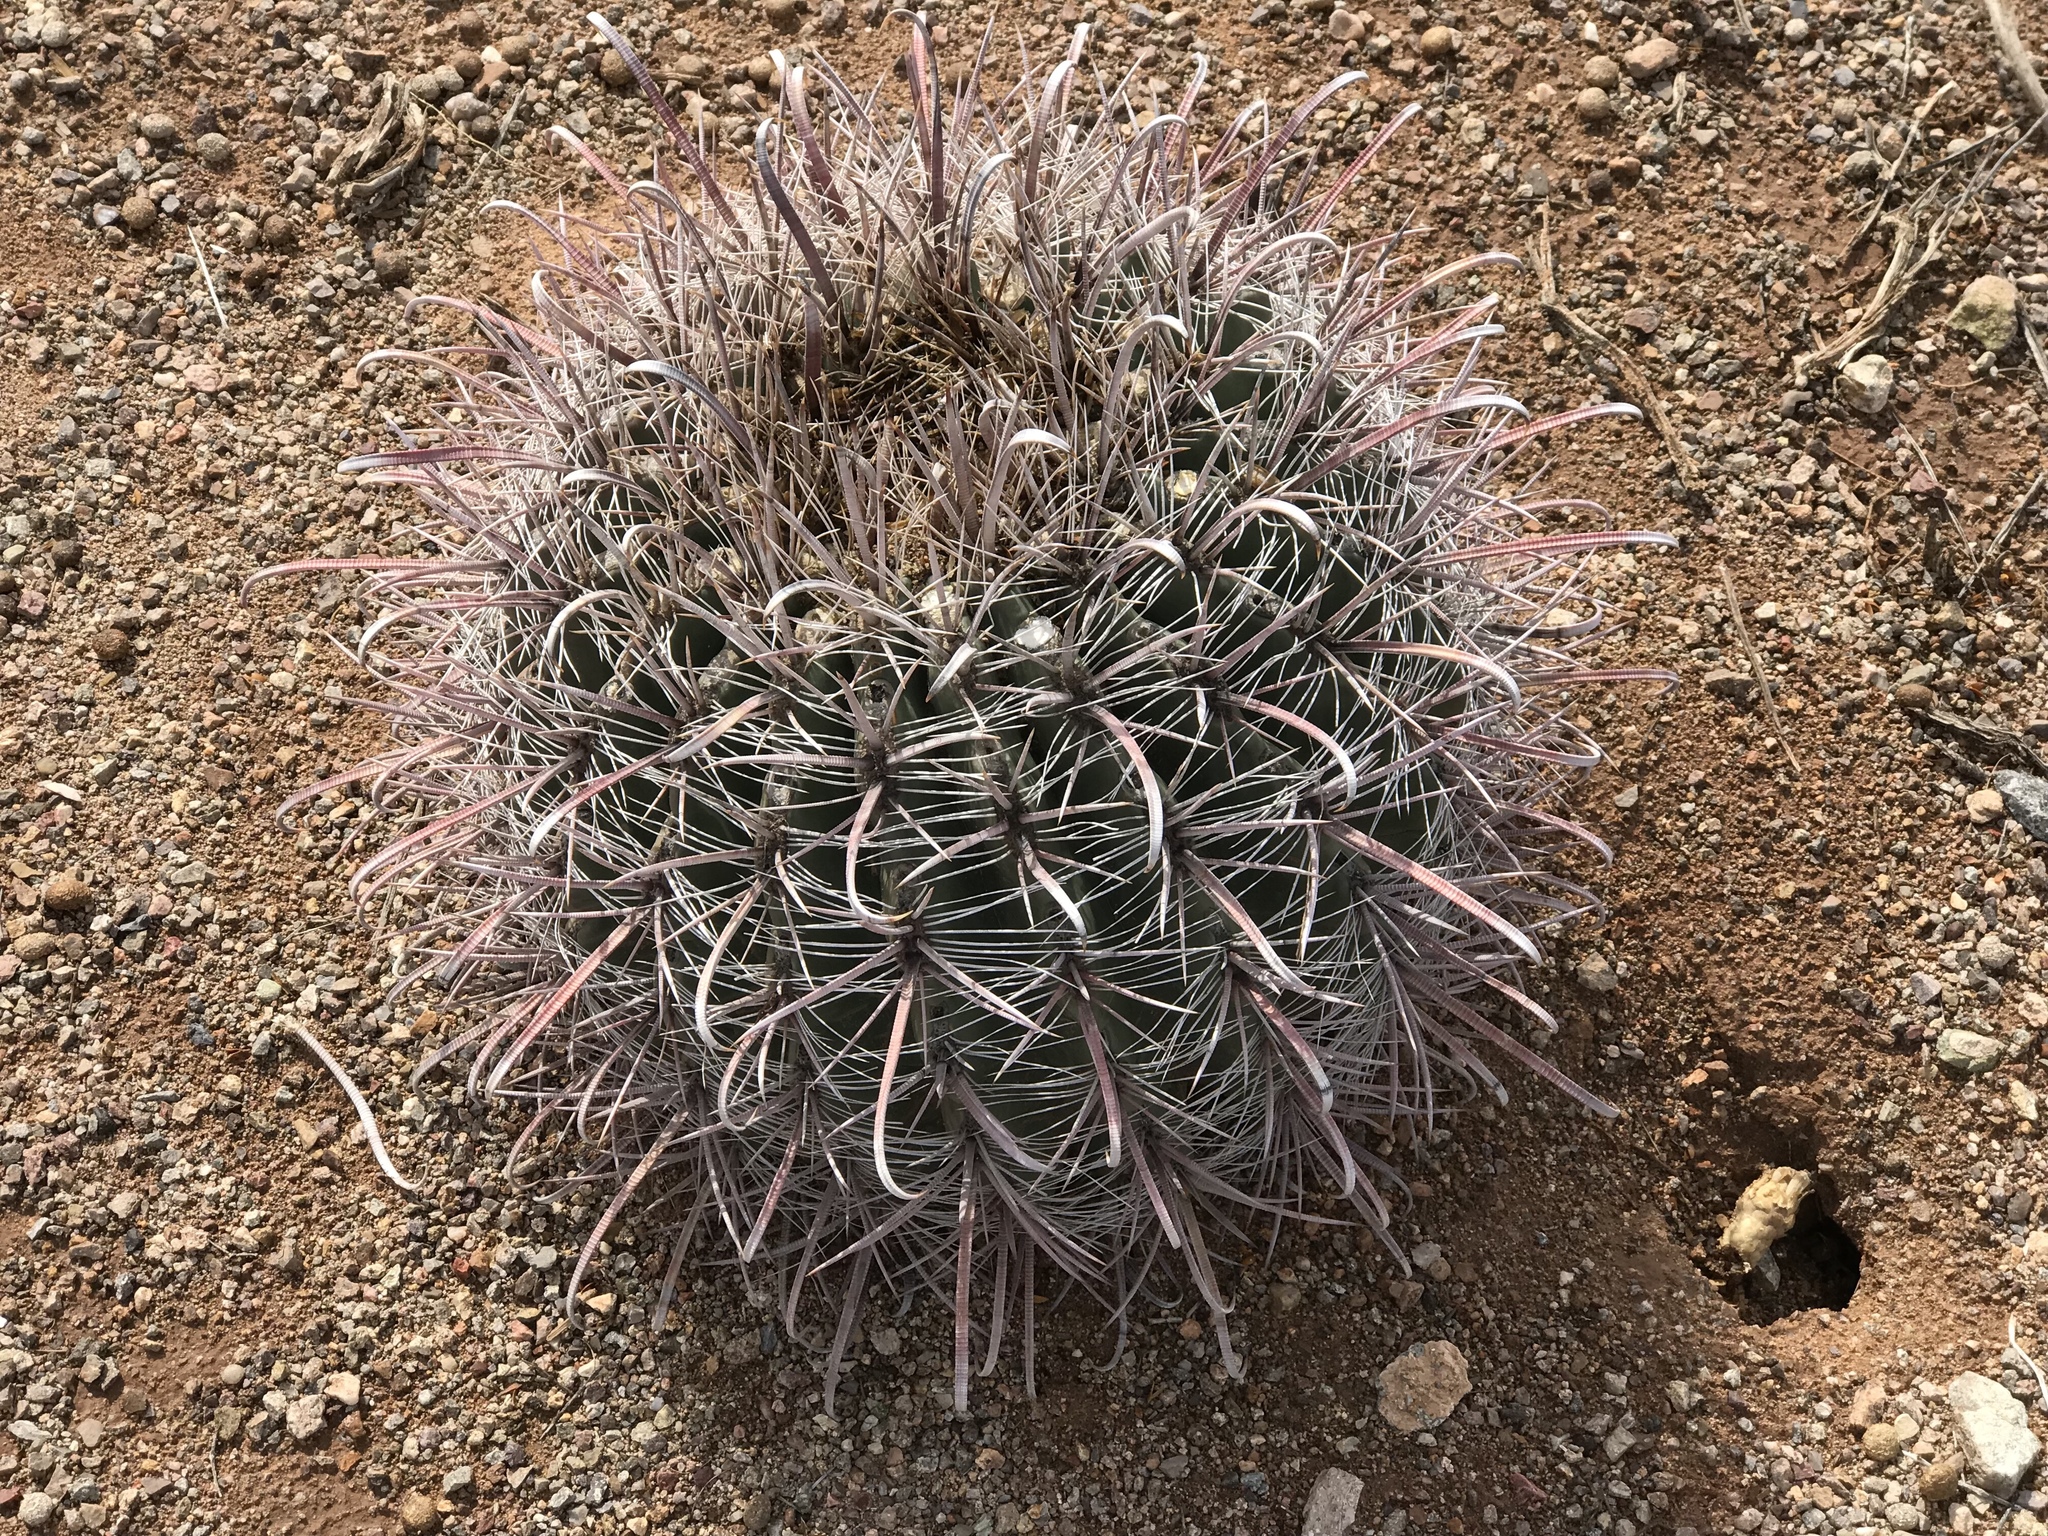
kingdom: Plantae
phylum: Tracheophyta
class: Magnoliopsida
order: Caryophyllales
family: Cactaceae
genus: Ferocactus
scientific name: Ferocactus wislizeni
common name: Candy barrel cactus
